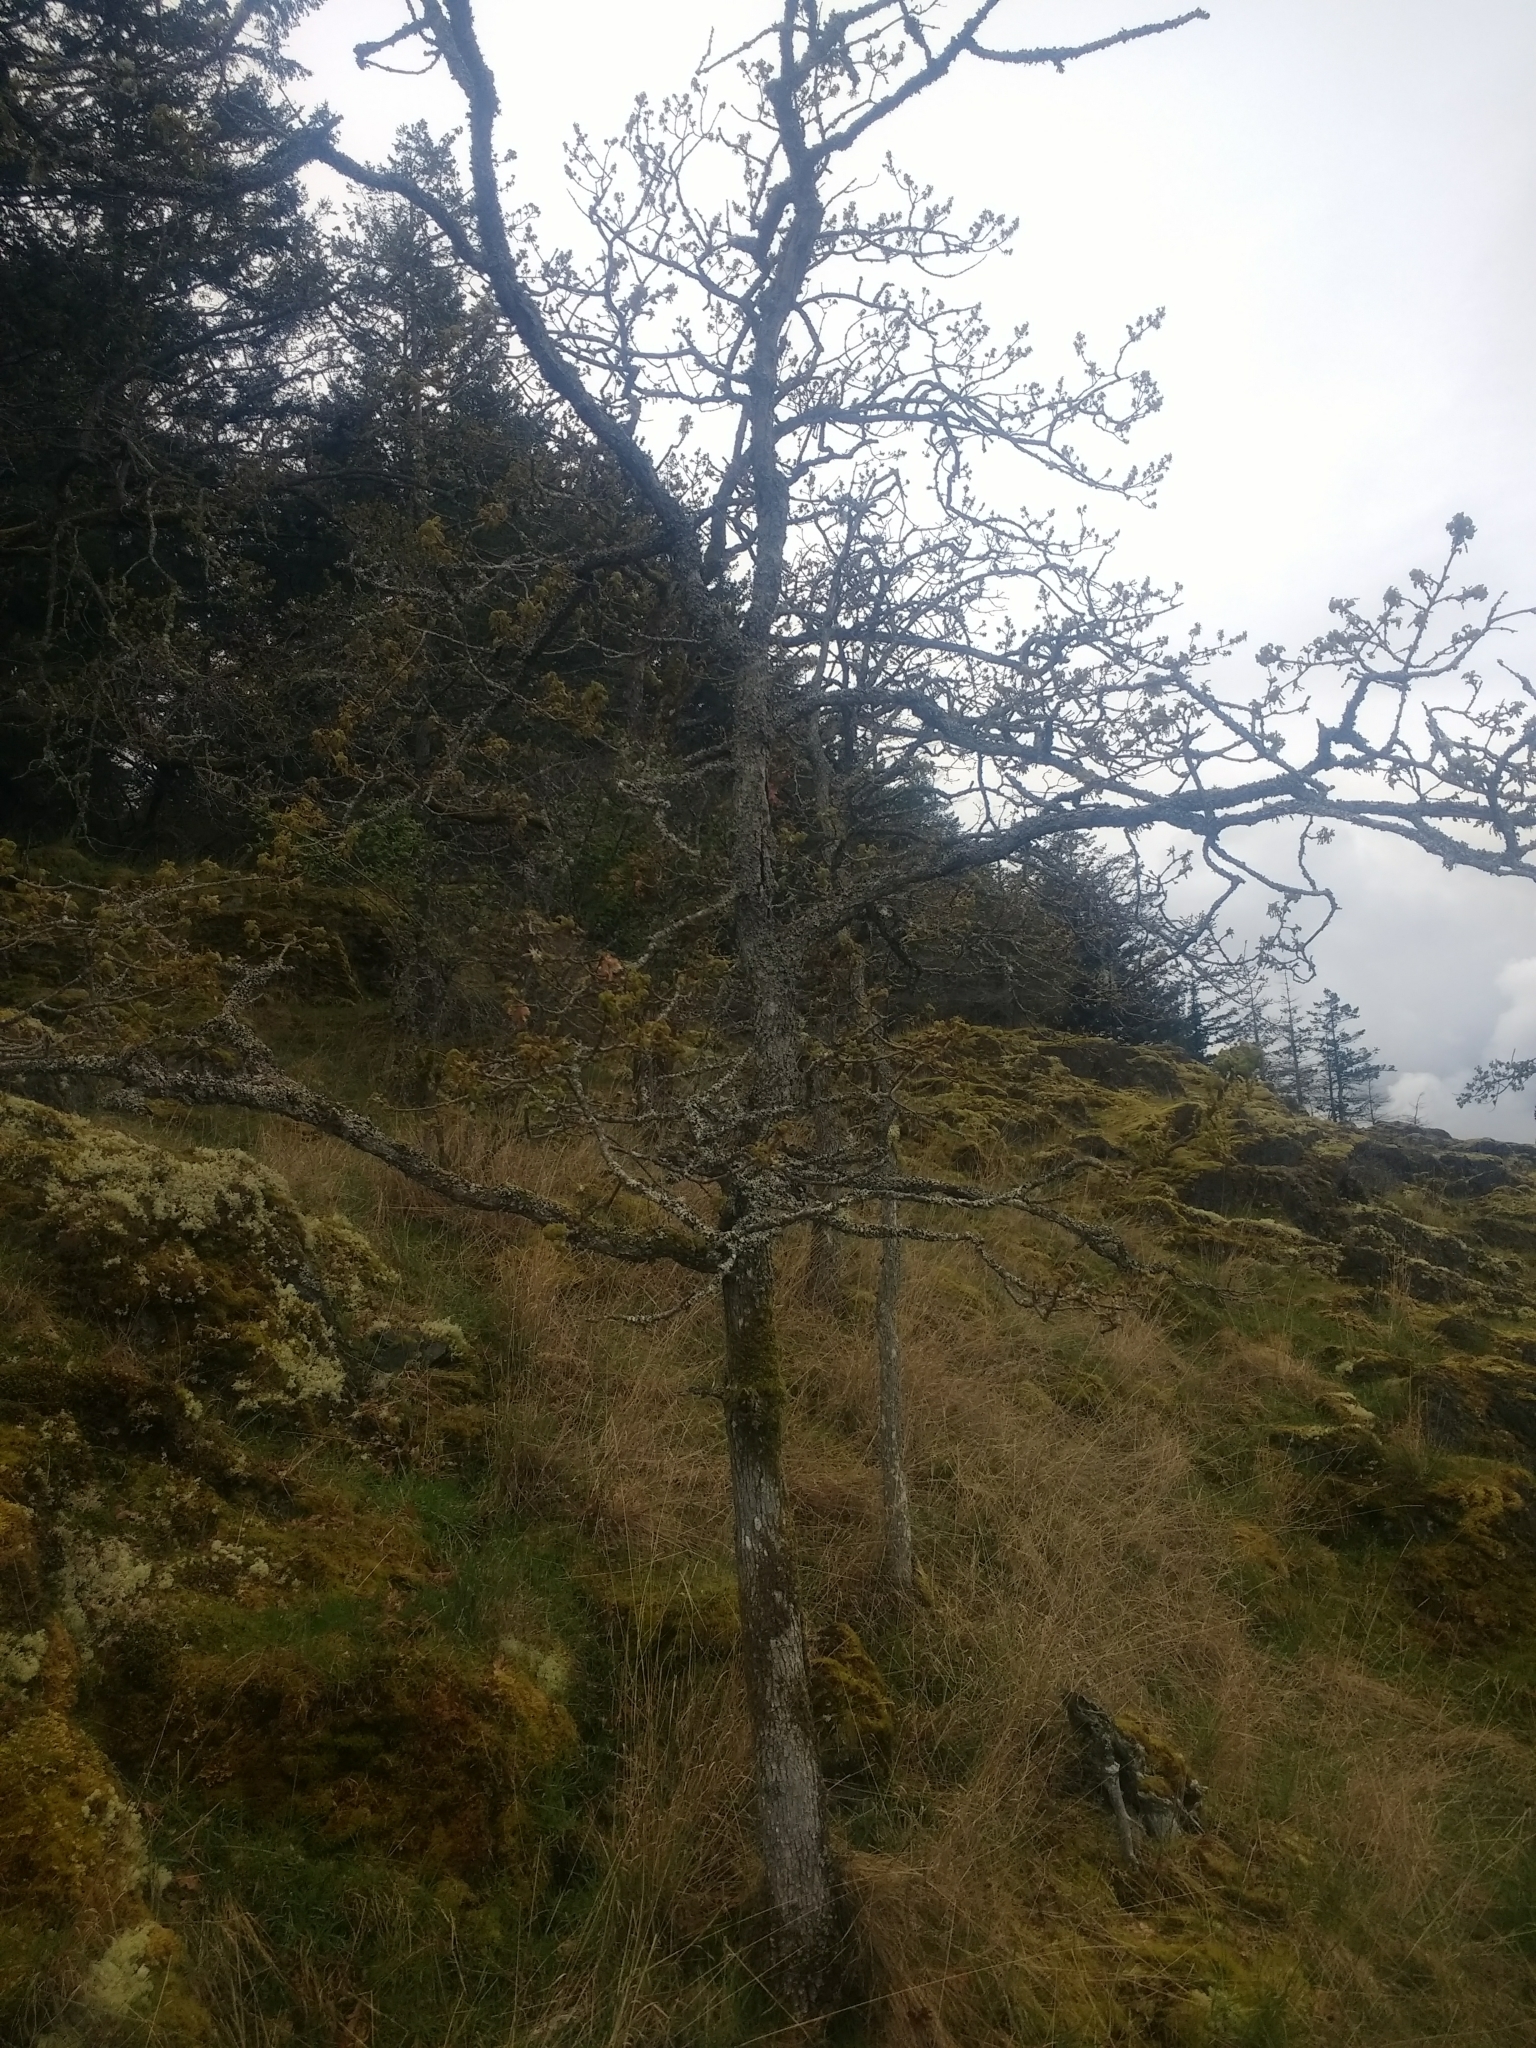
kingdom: Plantae
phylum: Tracheophyta
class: Magnoliopsida
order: Fagales
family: Fagaceae
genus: Quercus
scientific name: Quercus garryana
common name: Garry oak
